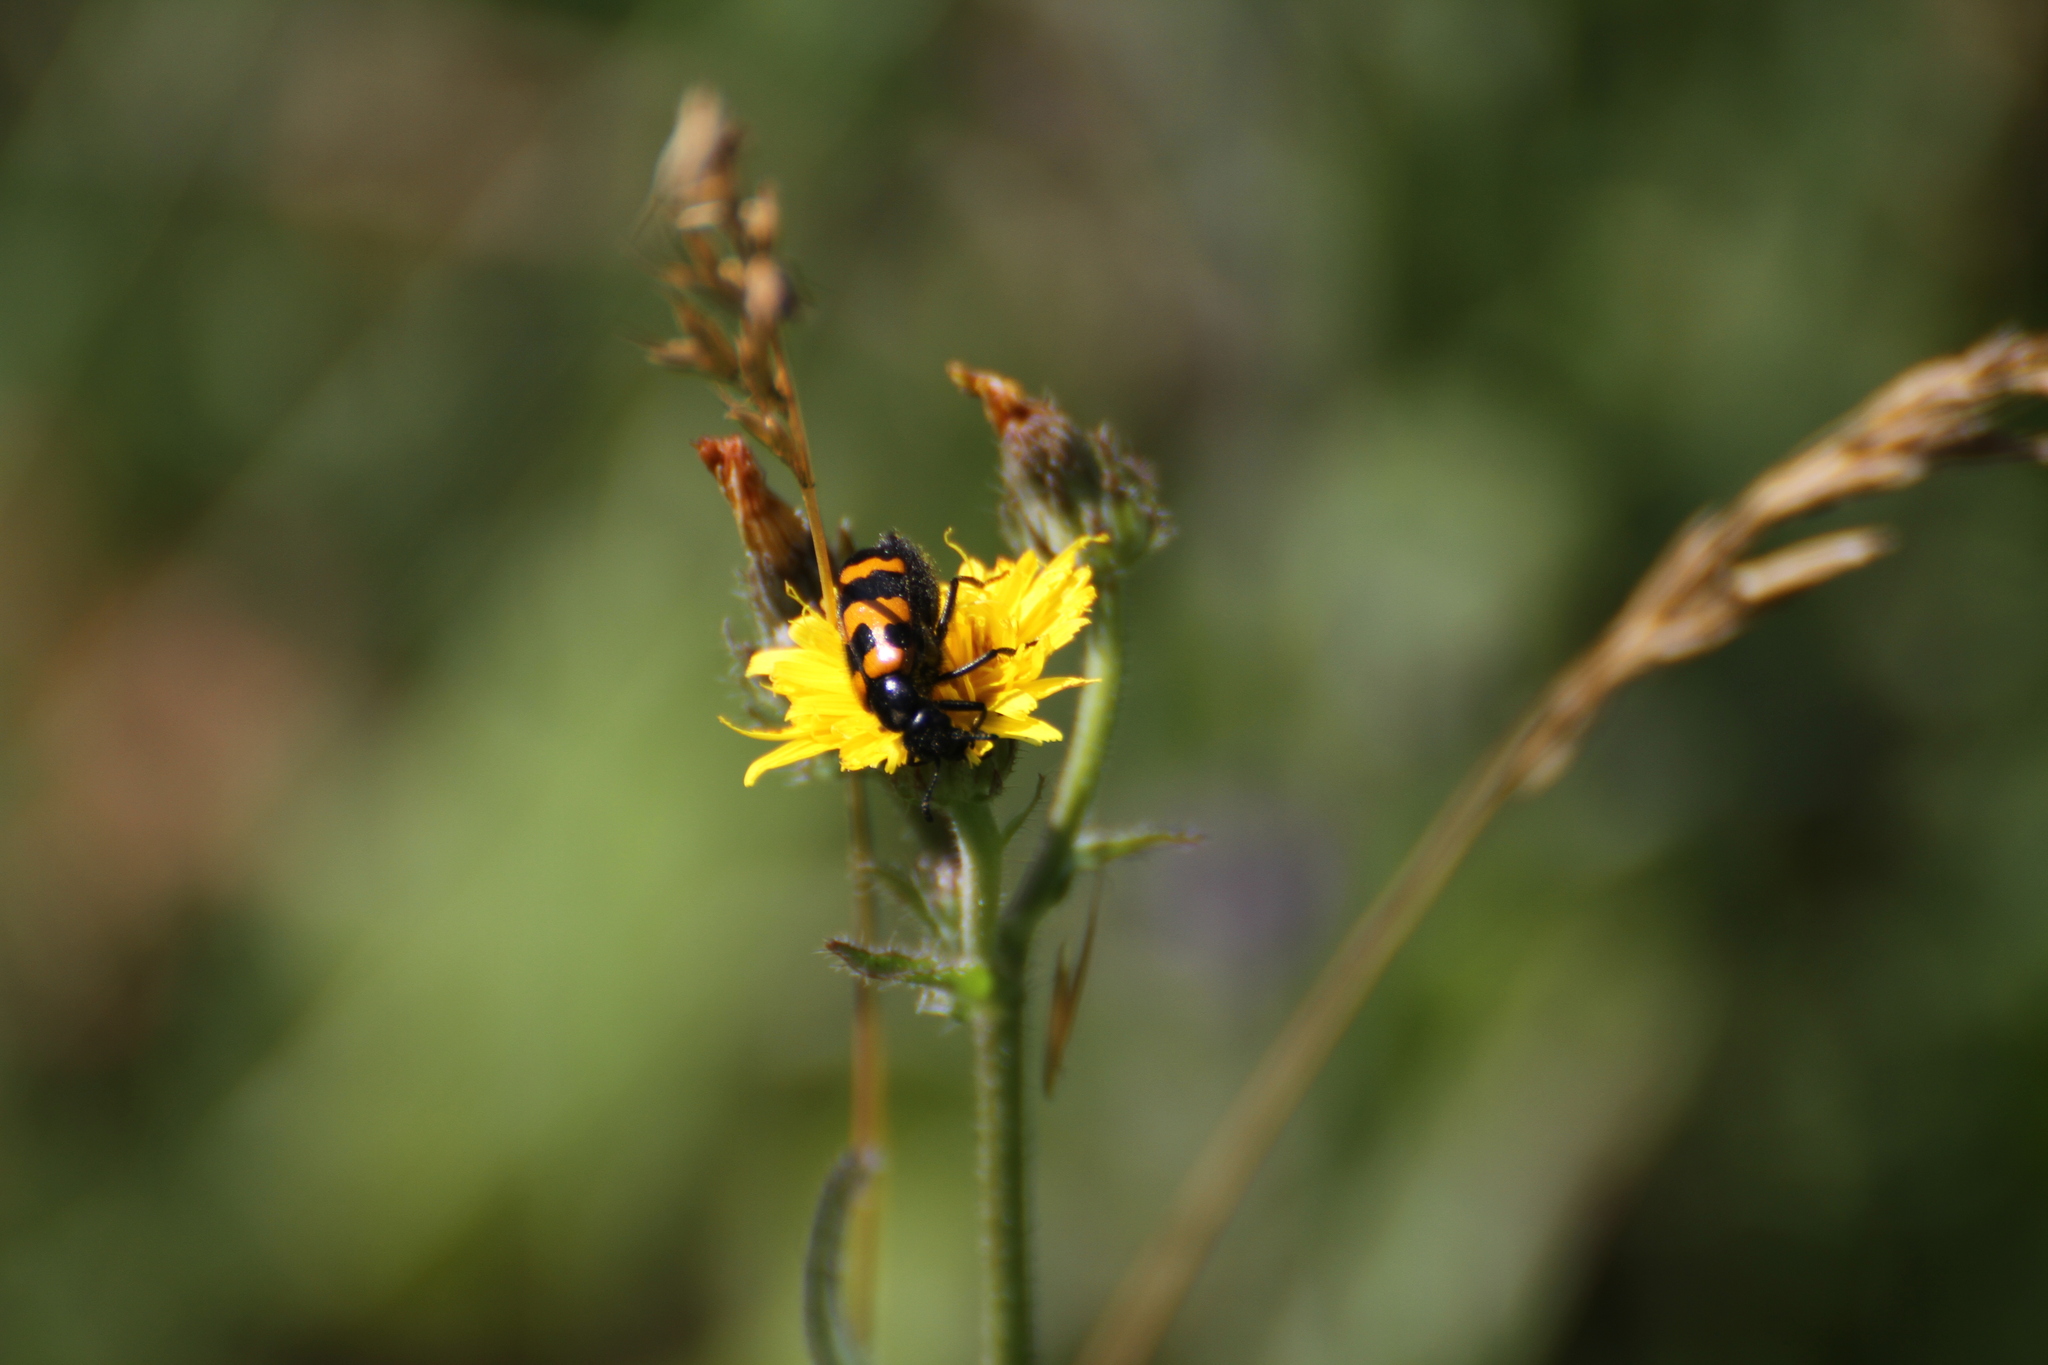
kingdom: Animalia
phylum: Arthropoda
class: Insecta
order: Coleoptera
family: Meloidae
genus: Mylabris
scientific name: Mylabris variabilis
